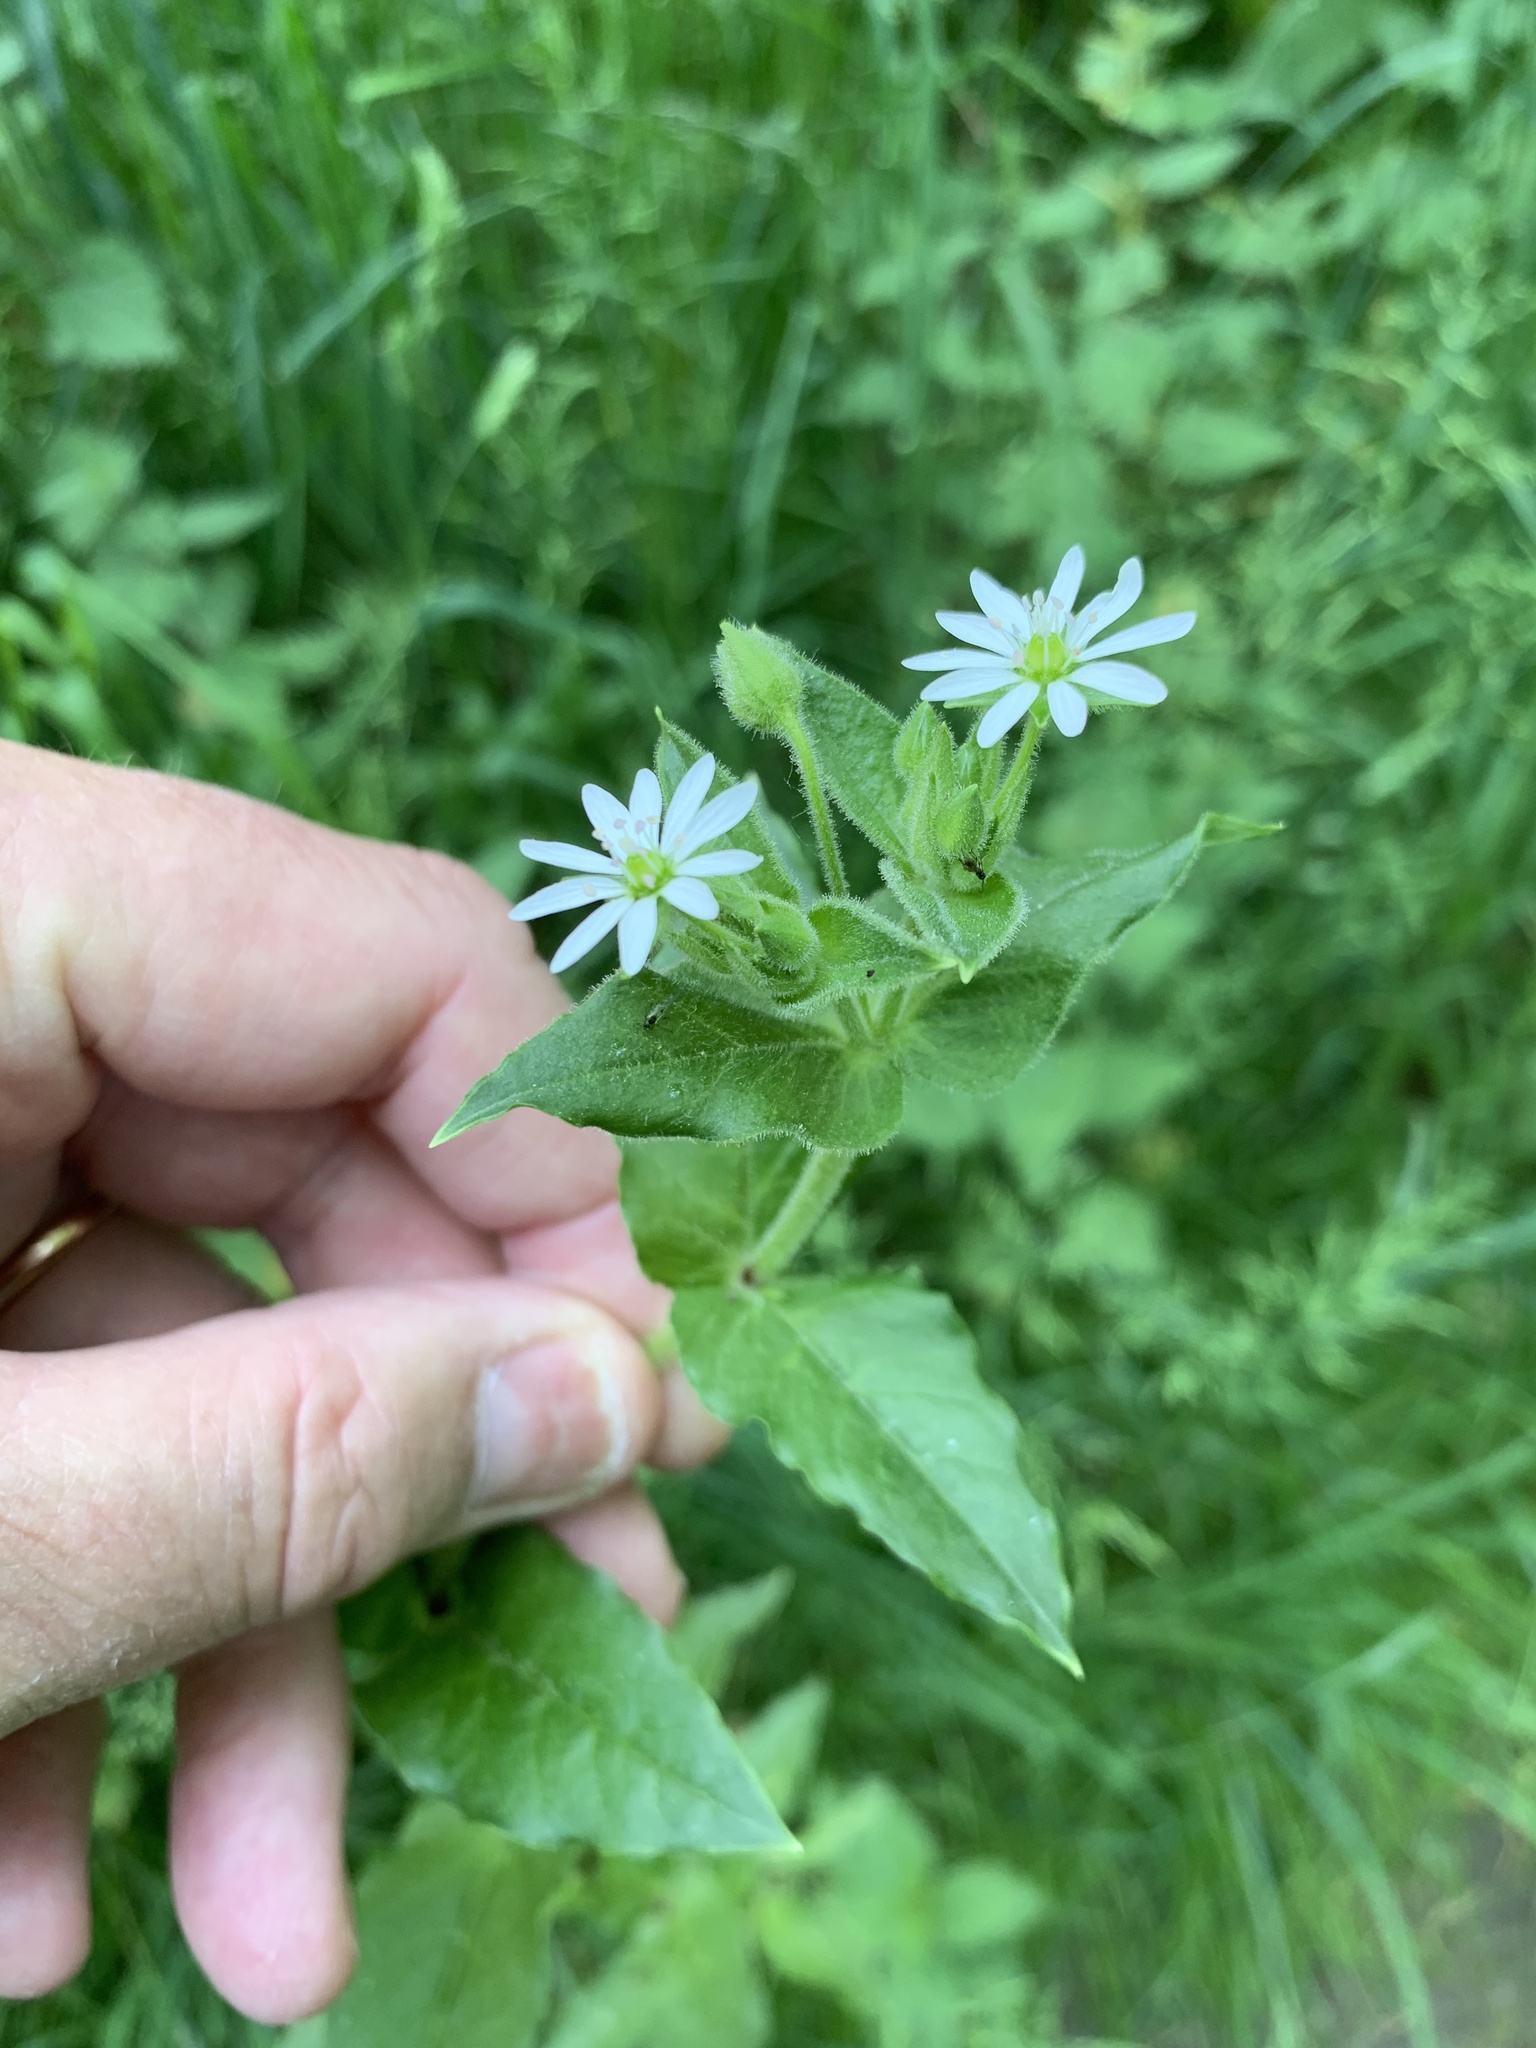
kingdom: Plantae
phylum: Tracheophyta
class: Magnoliopsida
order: Caryophyllales
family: Caryophyllaceae
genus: Stellaria
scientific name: Stellaria aquatica
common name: Water chickweed
